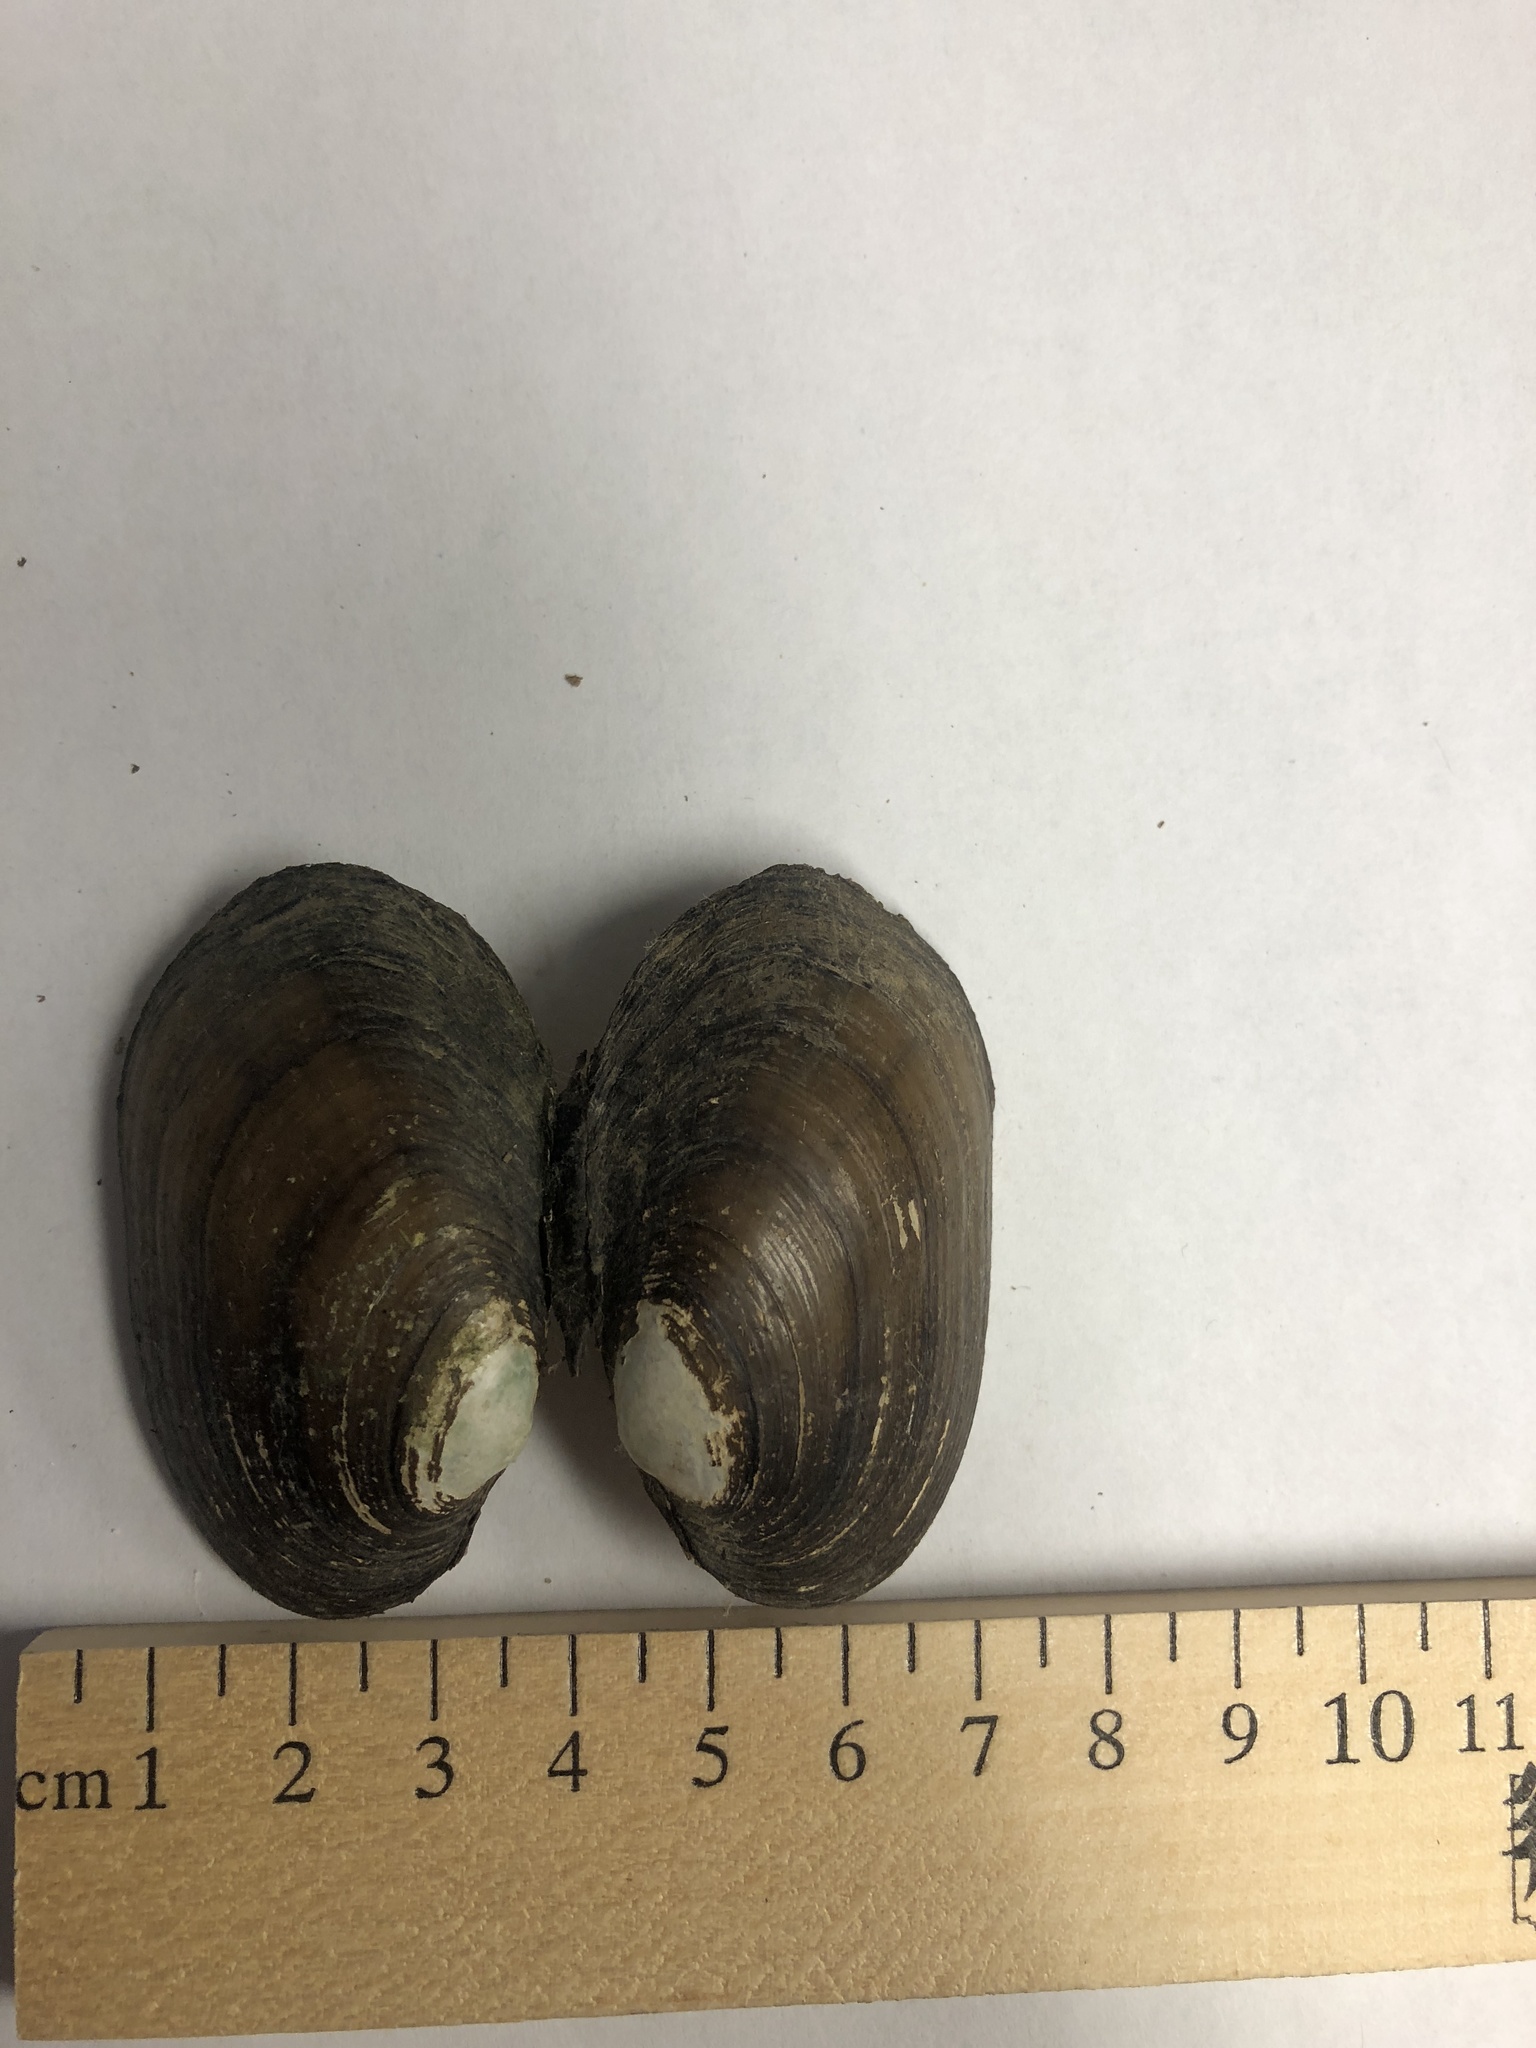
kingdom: Animalia
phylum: Mollusca
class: Bivalvia
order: Unionida
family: Unionidae
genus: Lampsilis
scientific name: Lampsilis siliquoidea
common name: Fatmucket
